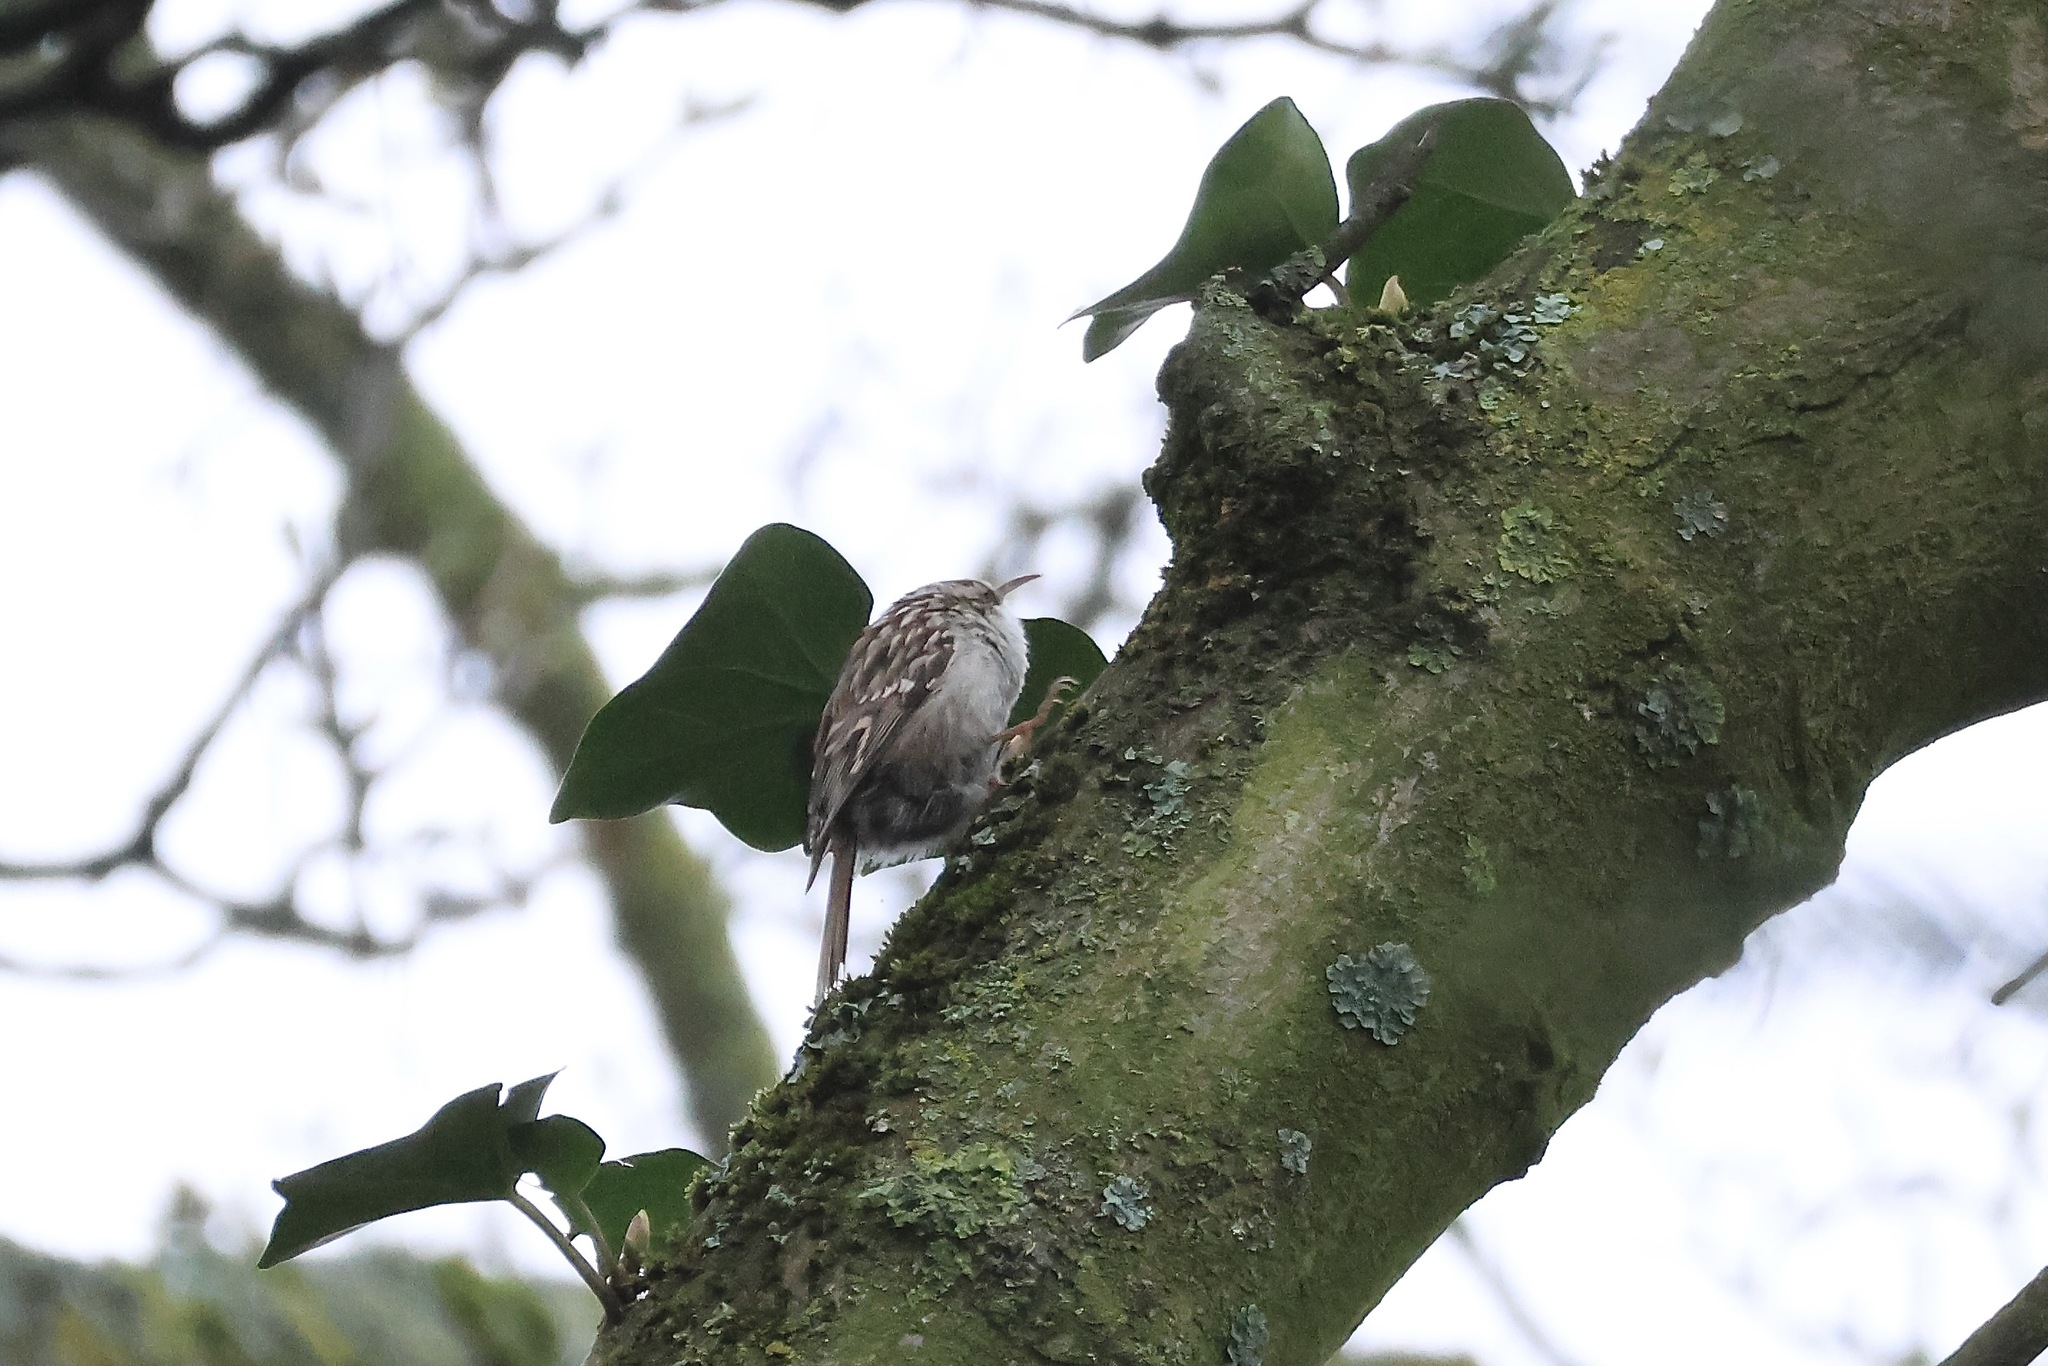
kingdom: Animalia
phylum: Chordata
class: Aves
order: Passeriformes
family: Certhiidae
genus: Certhia
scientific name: Certhia brachydactyla
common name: Short-toed treecreeper
